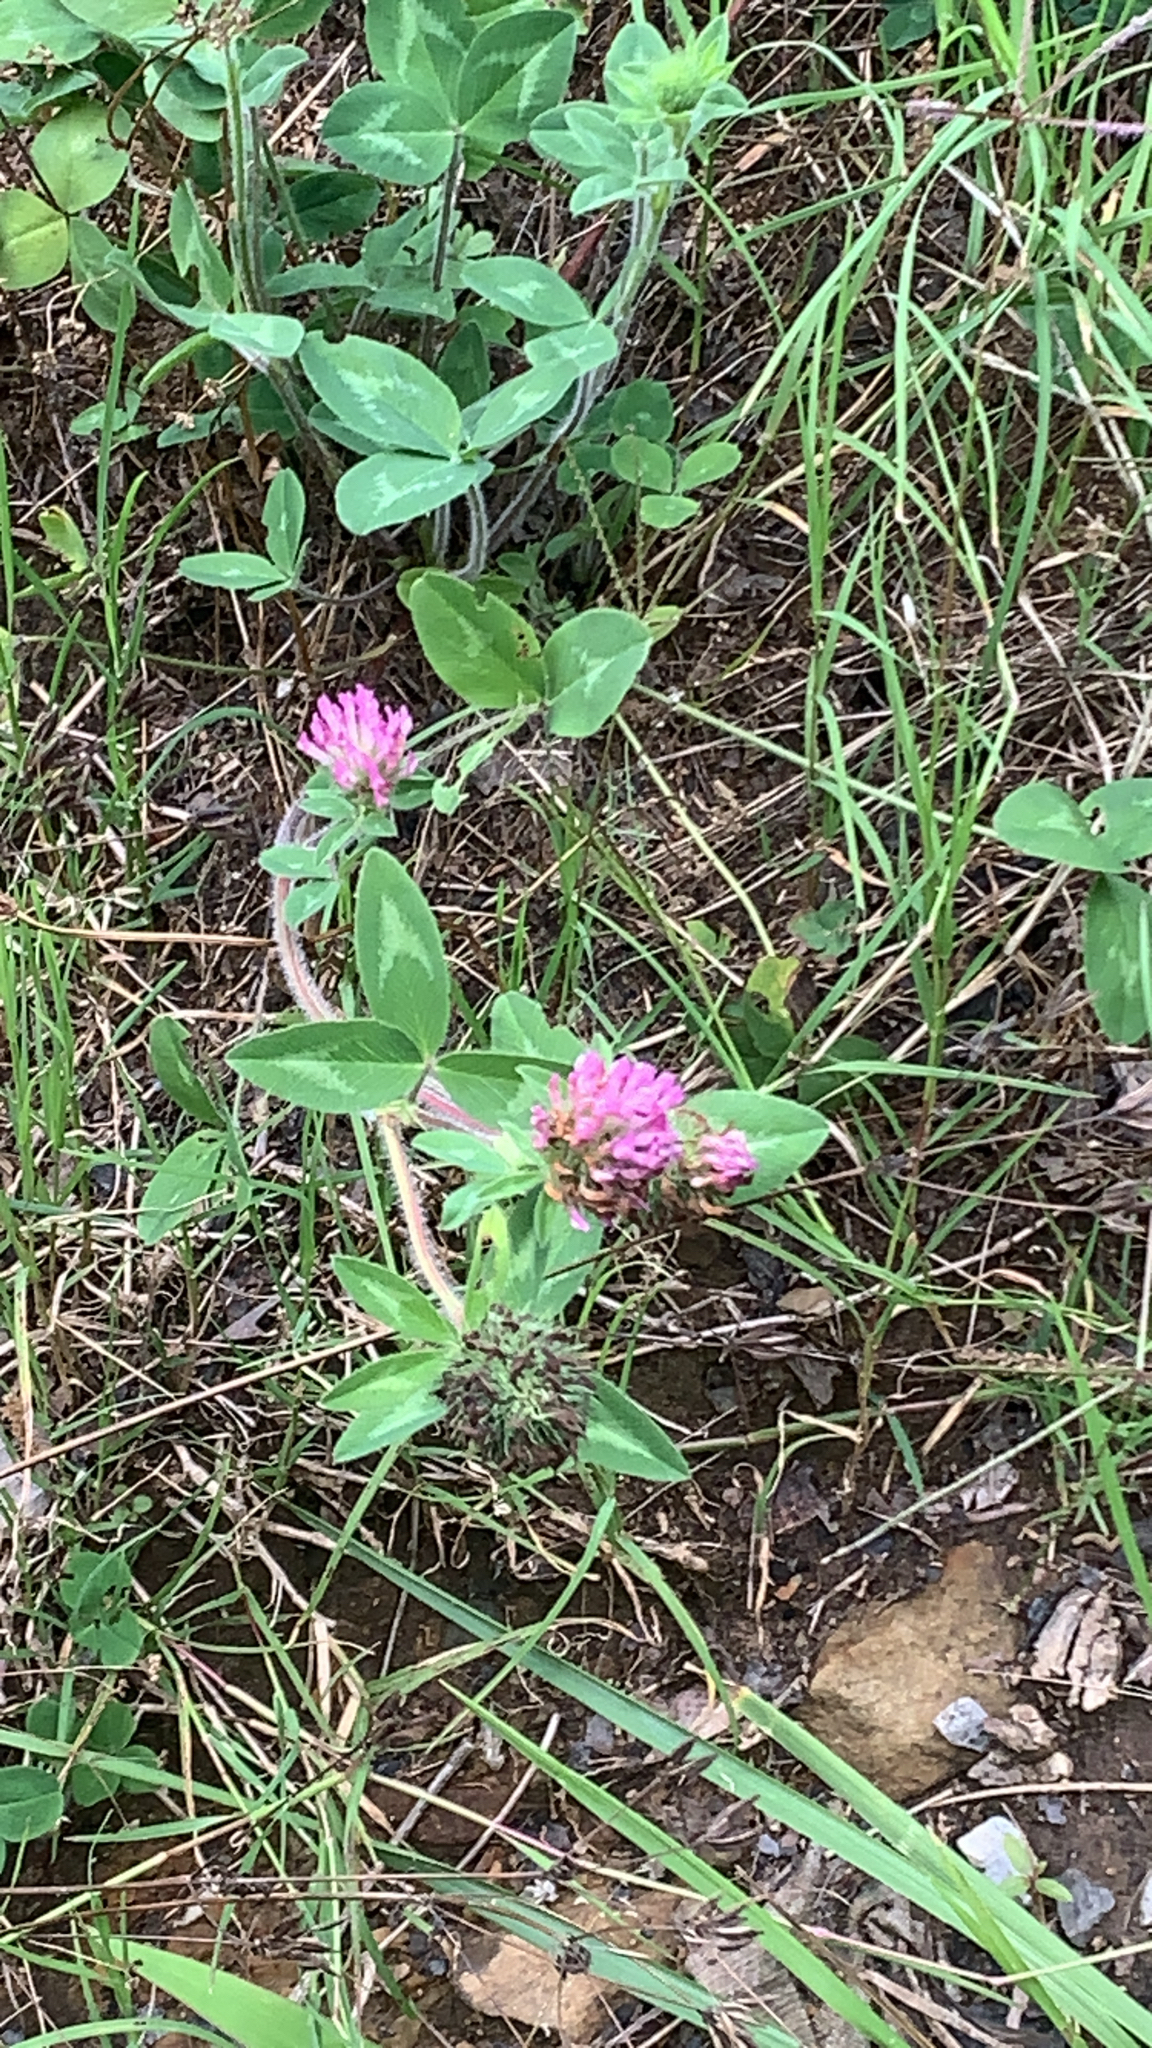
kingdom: Plantae
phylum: Tracheophyta
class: Magnoliopsida
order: Fabales
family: Fabaceae
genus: Trifolium
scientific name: Trifolium pratense
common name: Red clover
